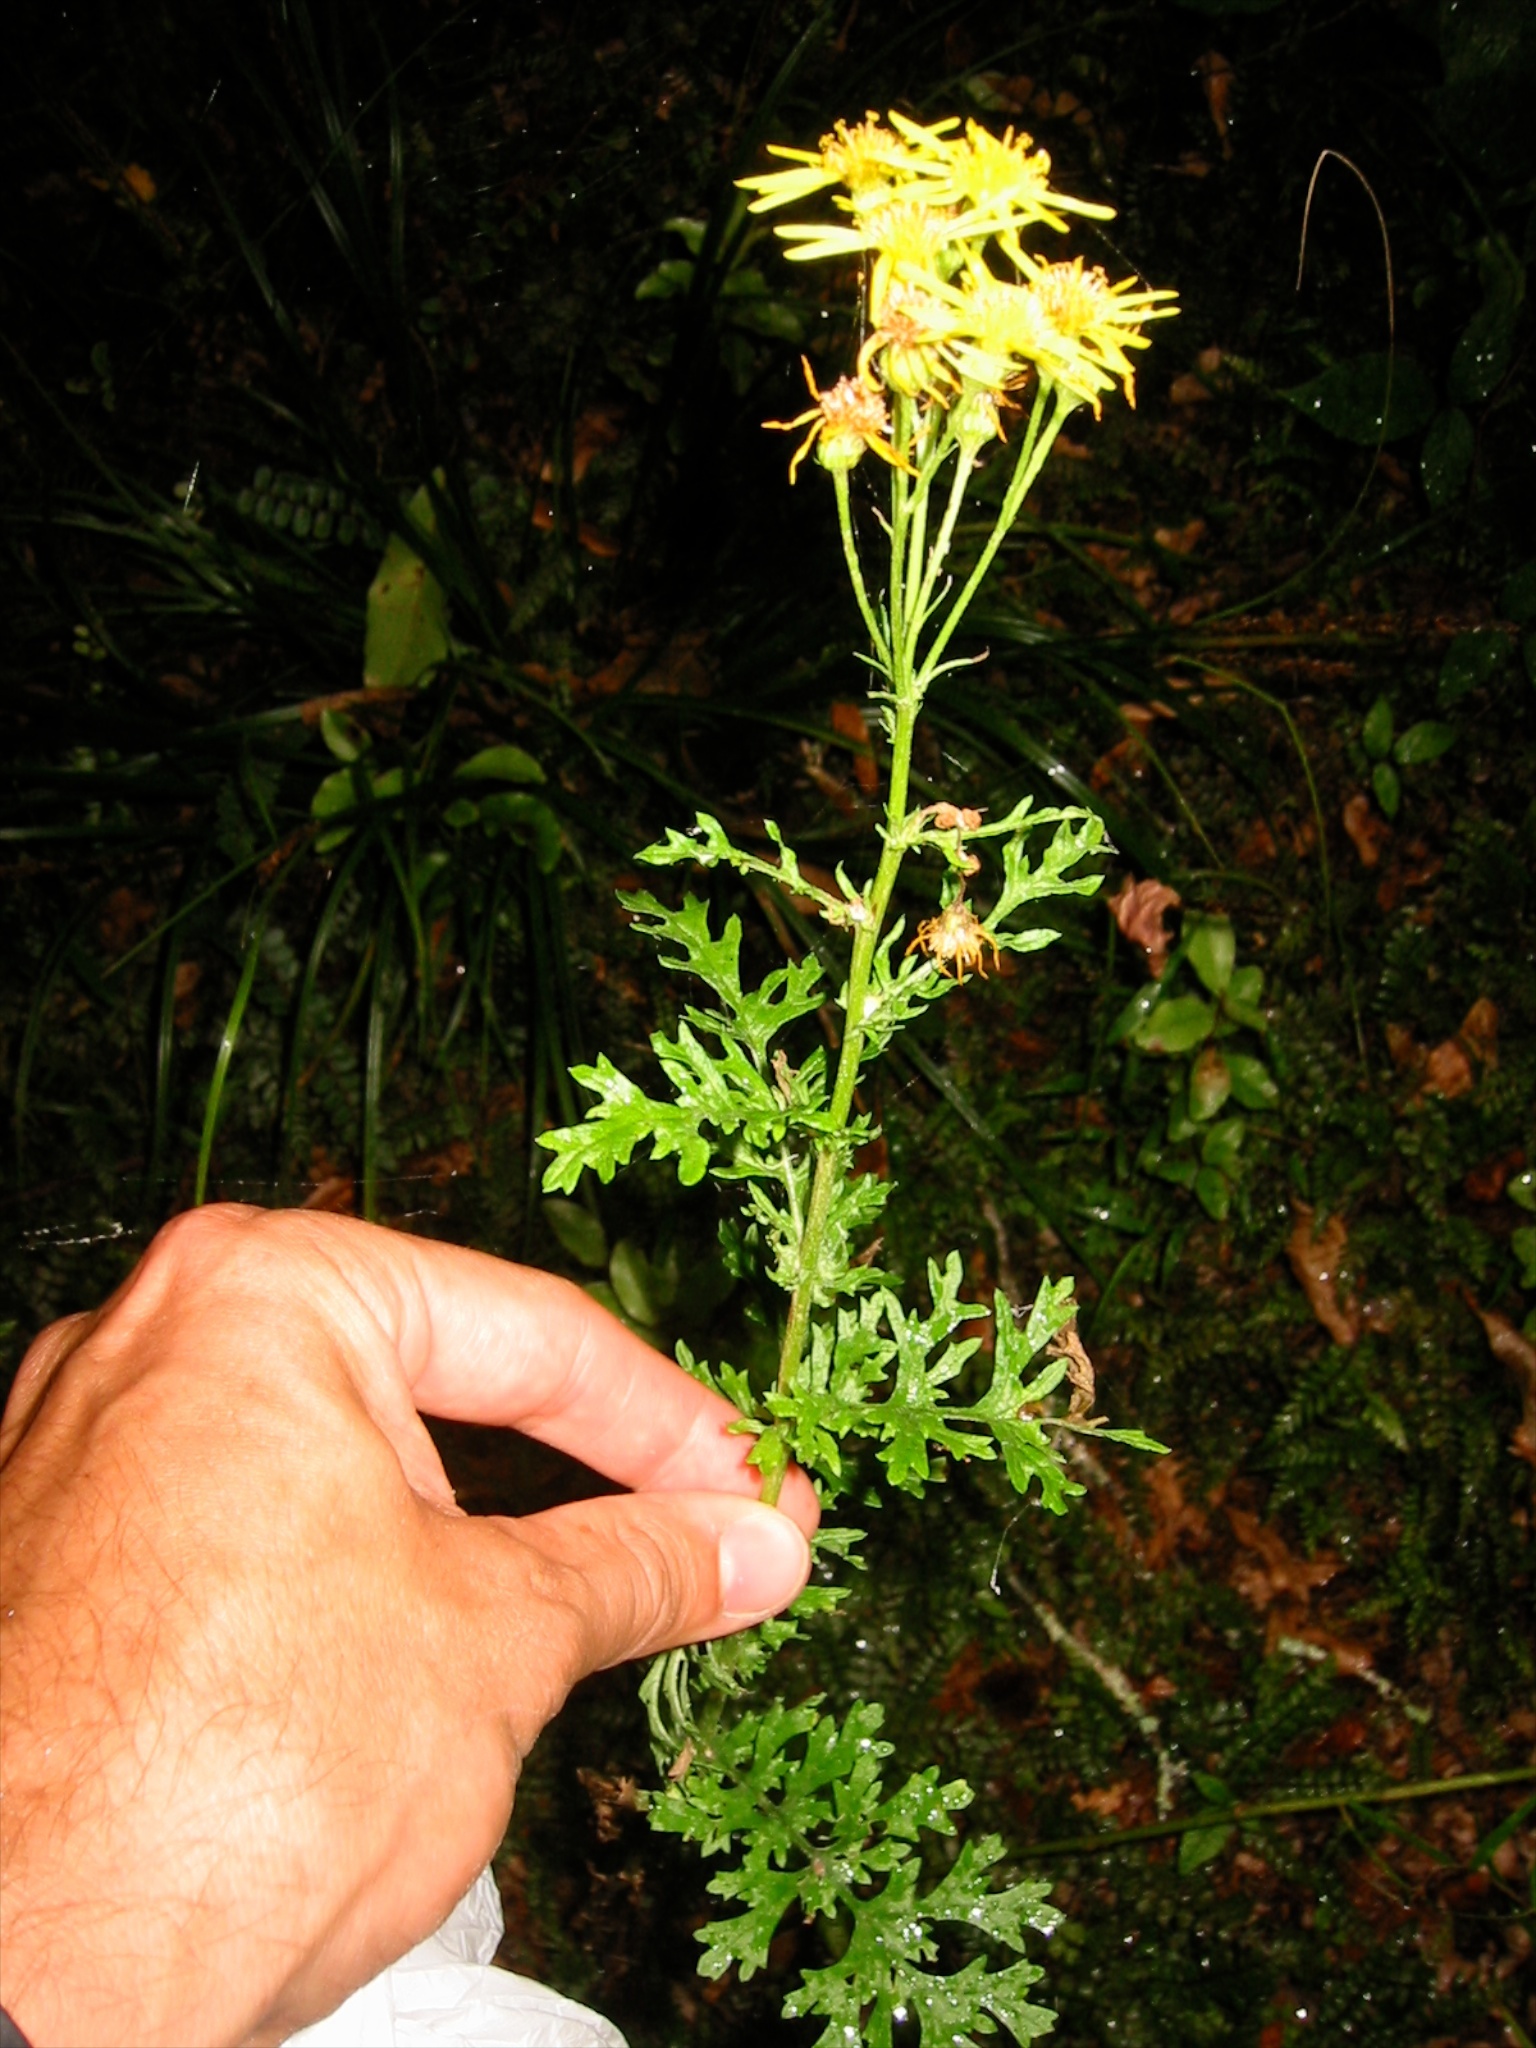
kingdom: Plantae
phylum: Tracheophyta
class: Magnoliopsida
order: Asterales
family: Asteraceae
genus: Jacobaea
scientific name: Jacobaea vulgaris
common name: Stinking willie
